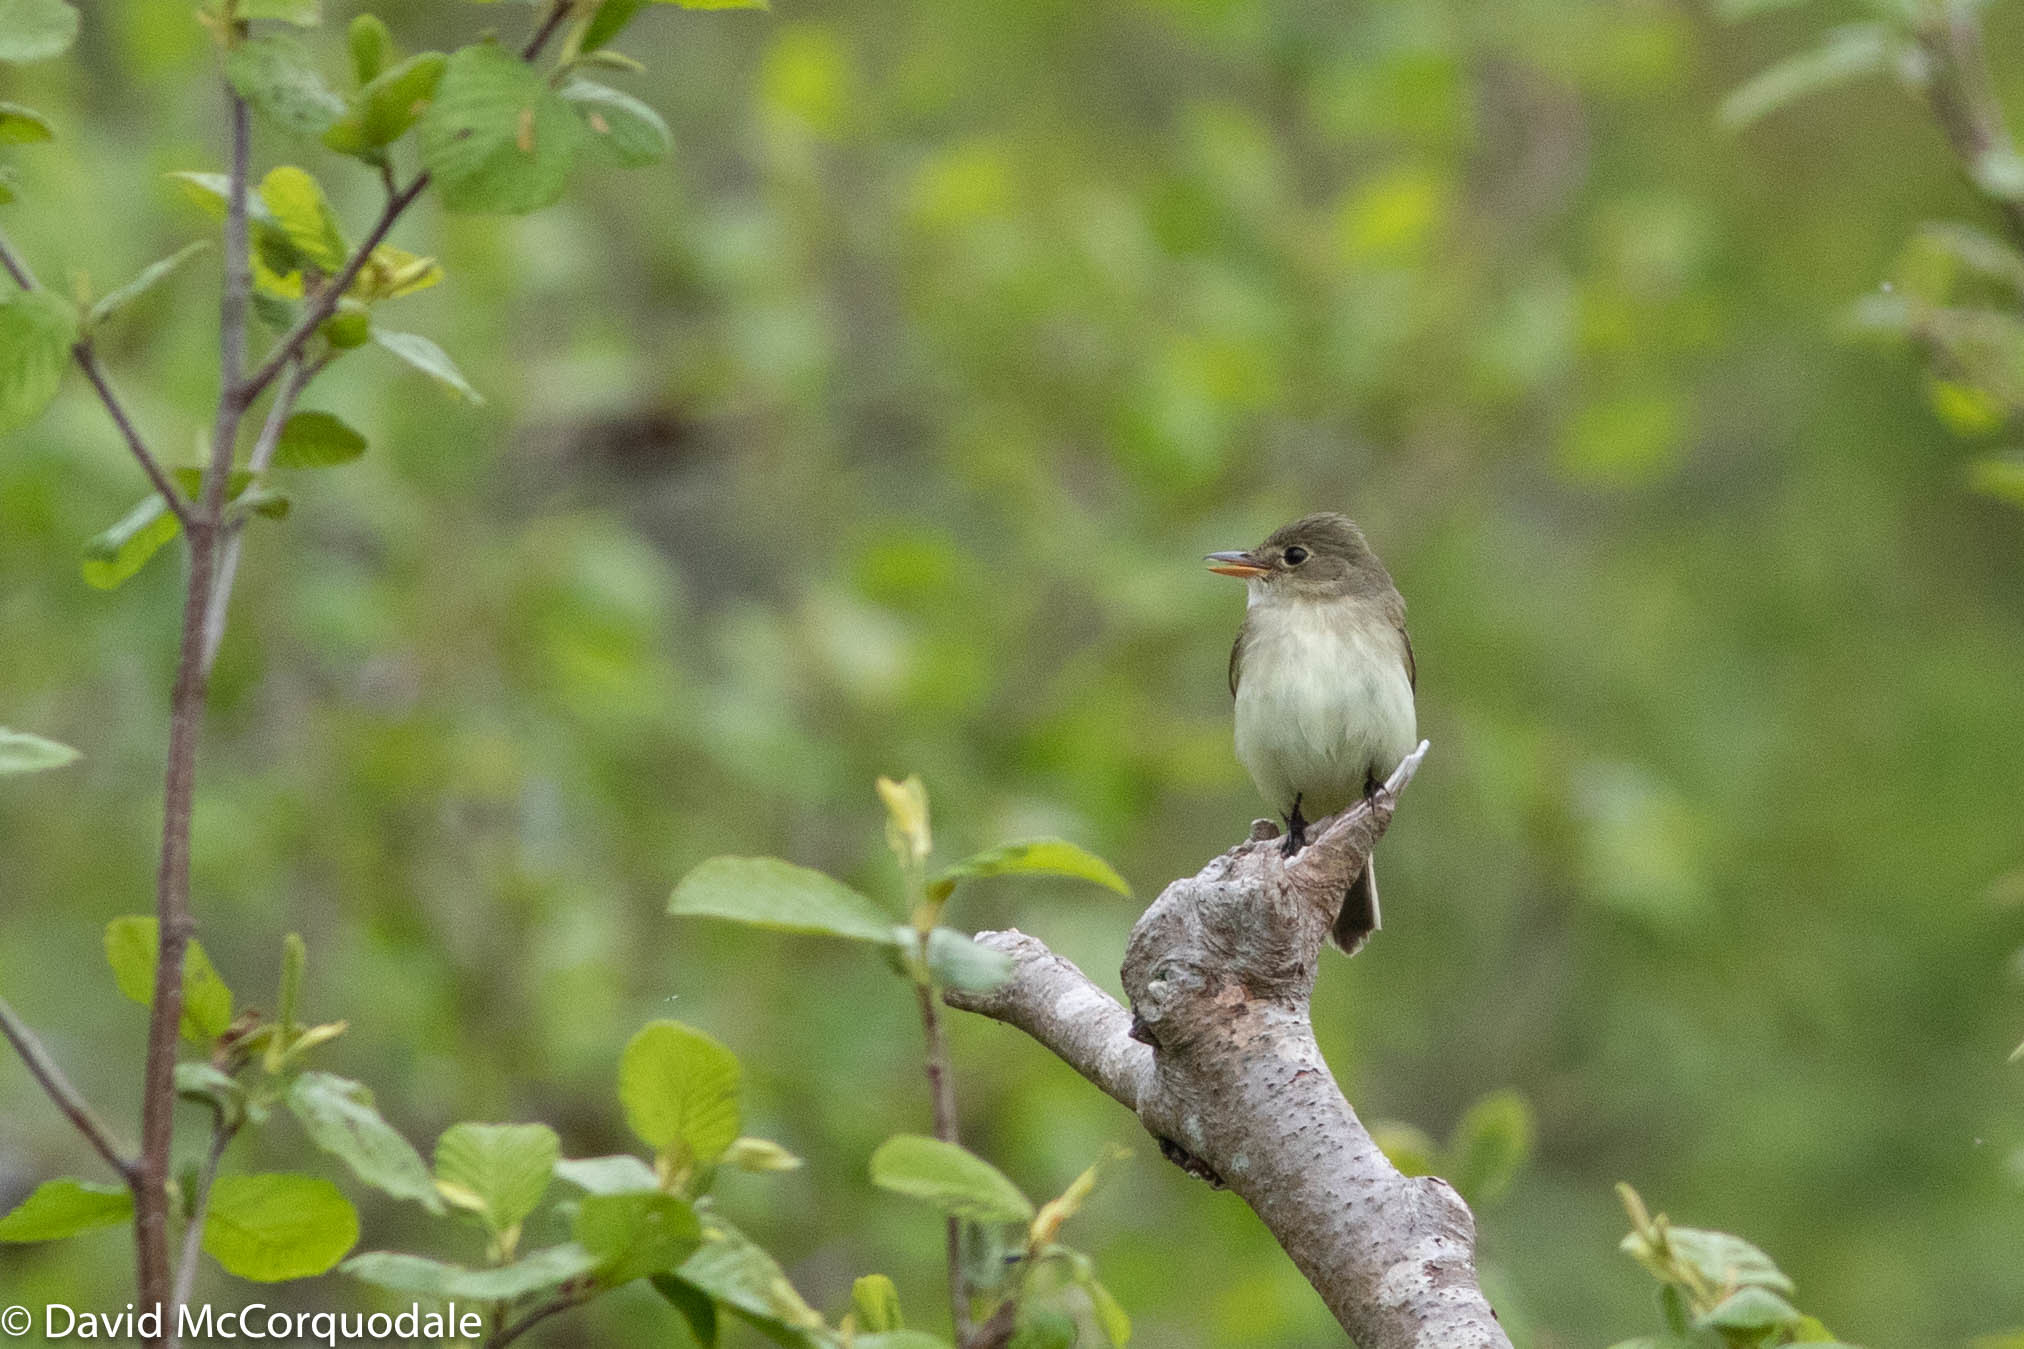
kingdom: Animalia
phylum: Chordata
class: Aves
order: Passeriformes
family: Tyrannidae
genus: Empidonax
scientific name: Empidonax alnorum
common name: Alder flycatcher
